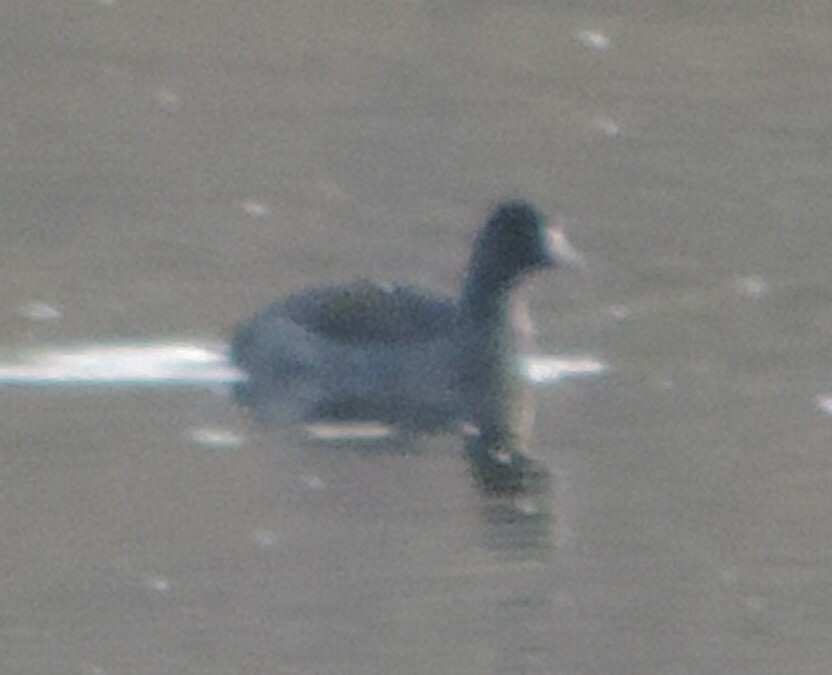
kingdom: Animalia
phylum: Chordata
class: Aves
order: Gruiformes
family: Rallidae
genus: Fulica
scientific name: Fulica americana
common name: American coot
